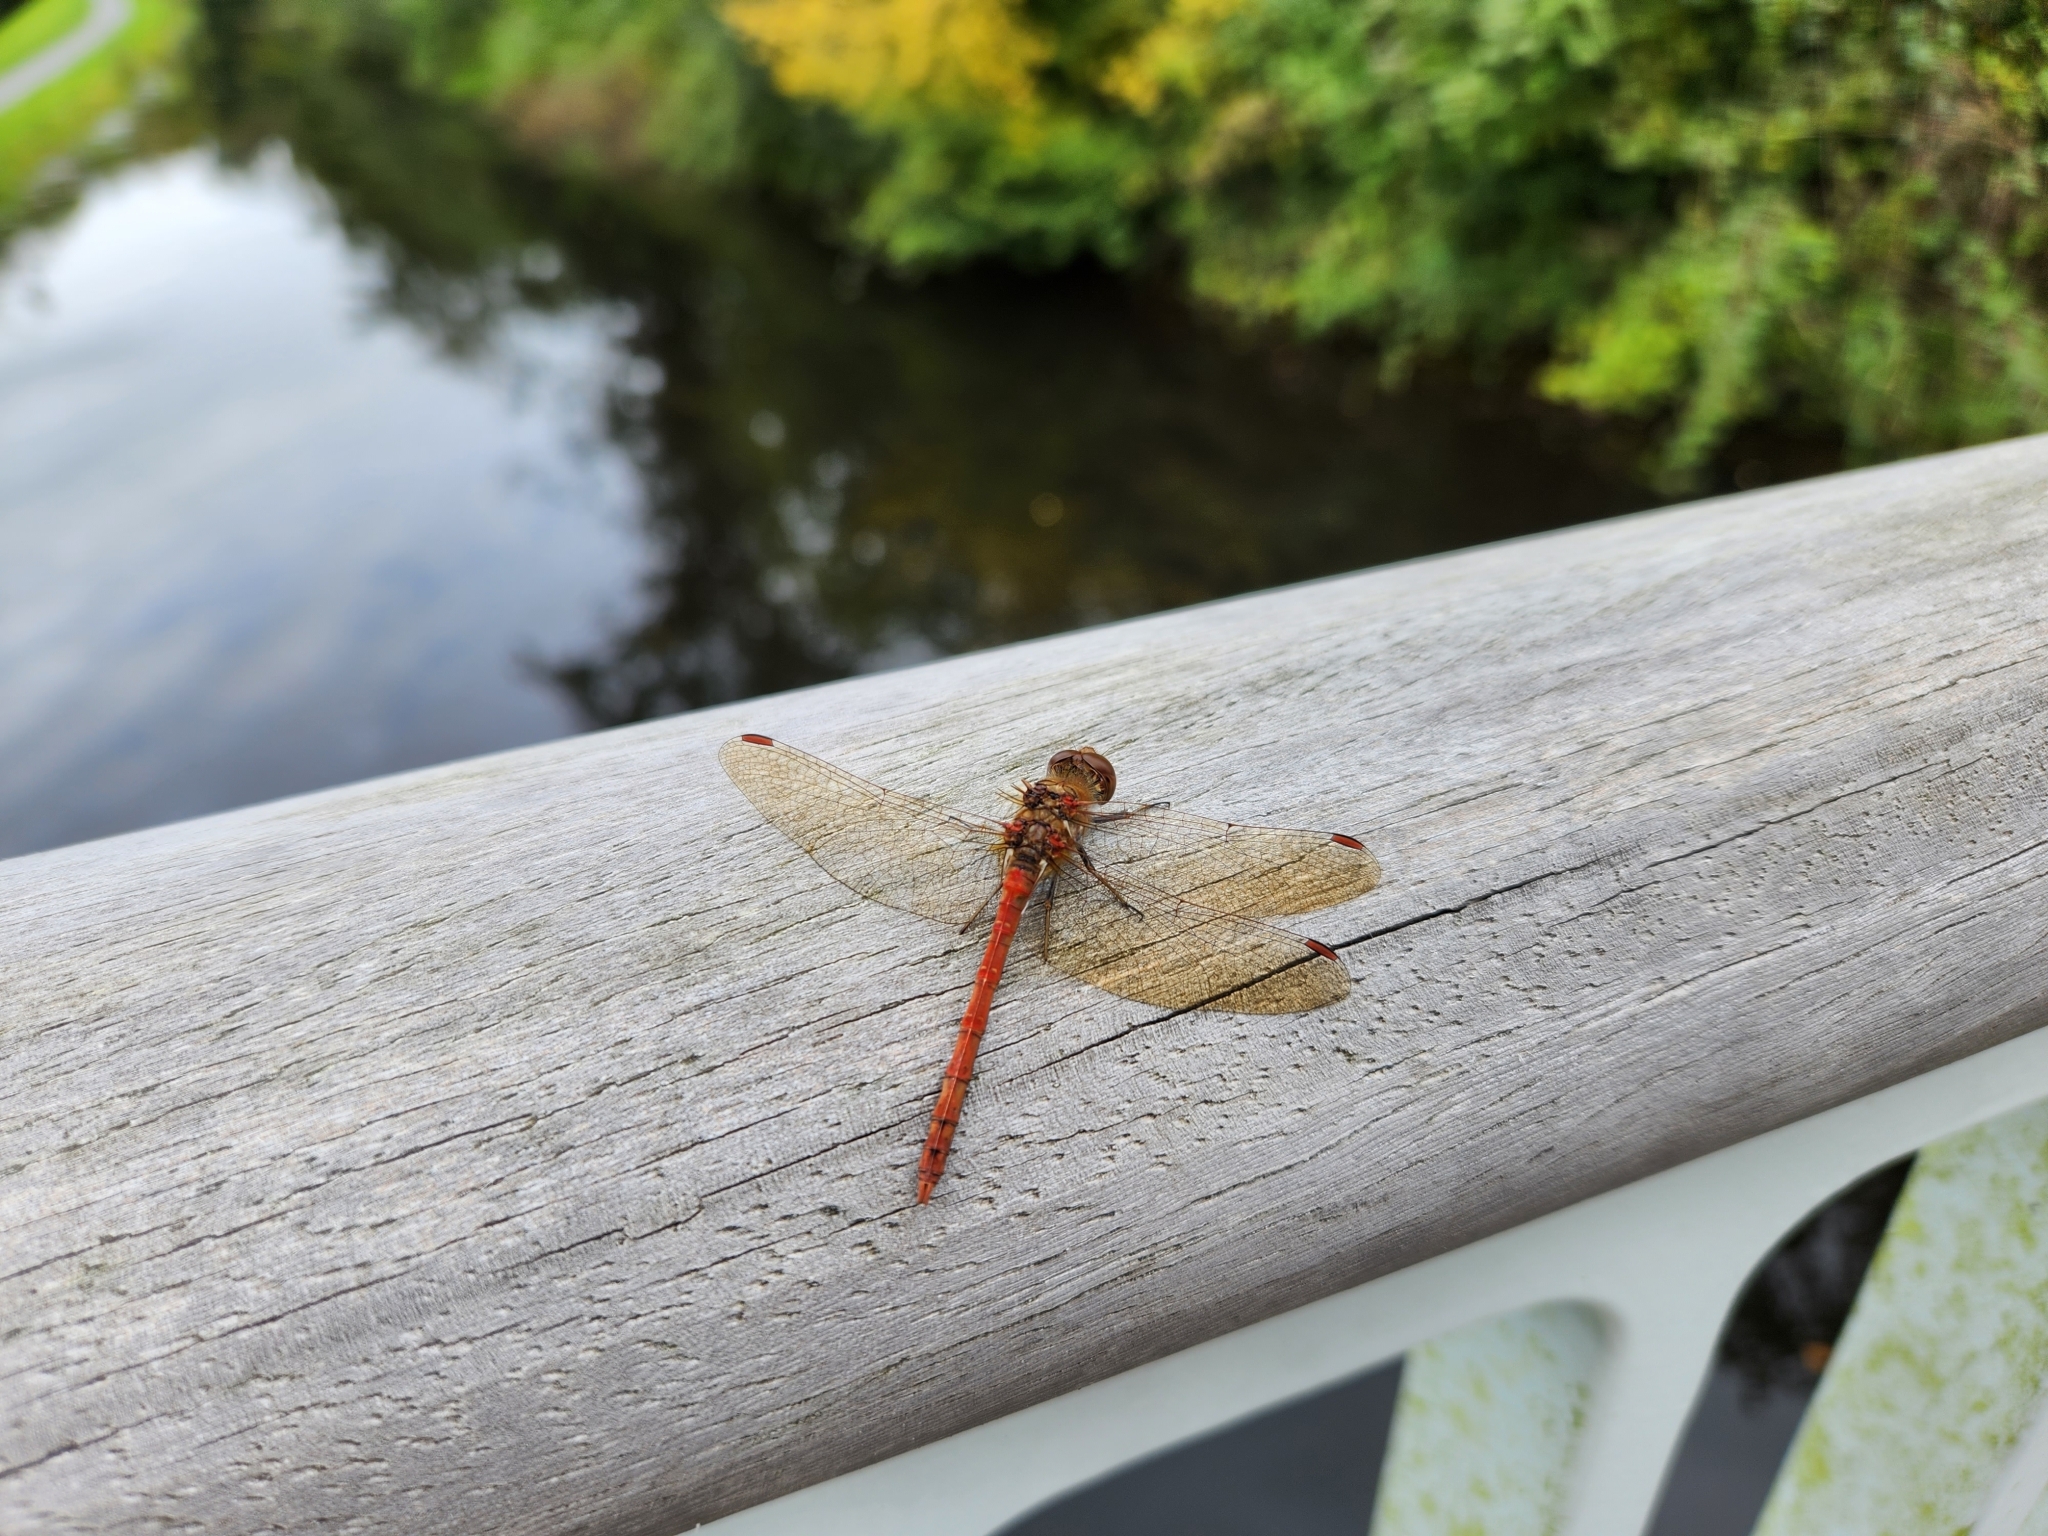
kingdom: Animalia
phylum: Arthropoda
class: Insecta
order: Odonata
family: Libellulidae
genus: Sympetrum
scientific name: Sympetrum striolatum
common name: Common darter
